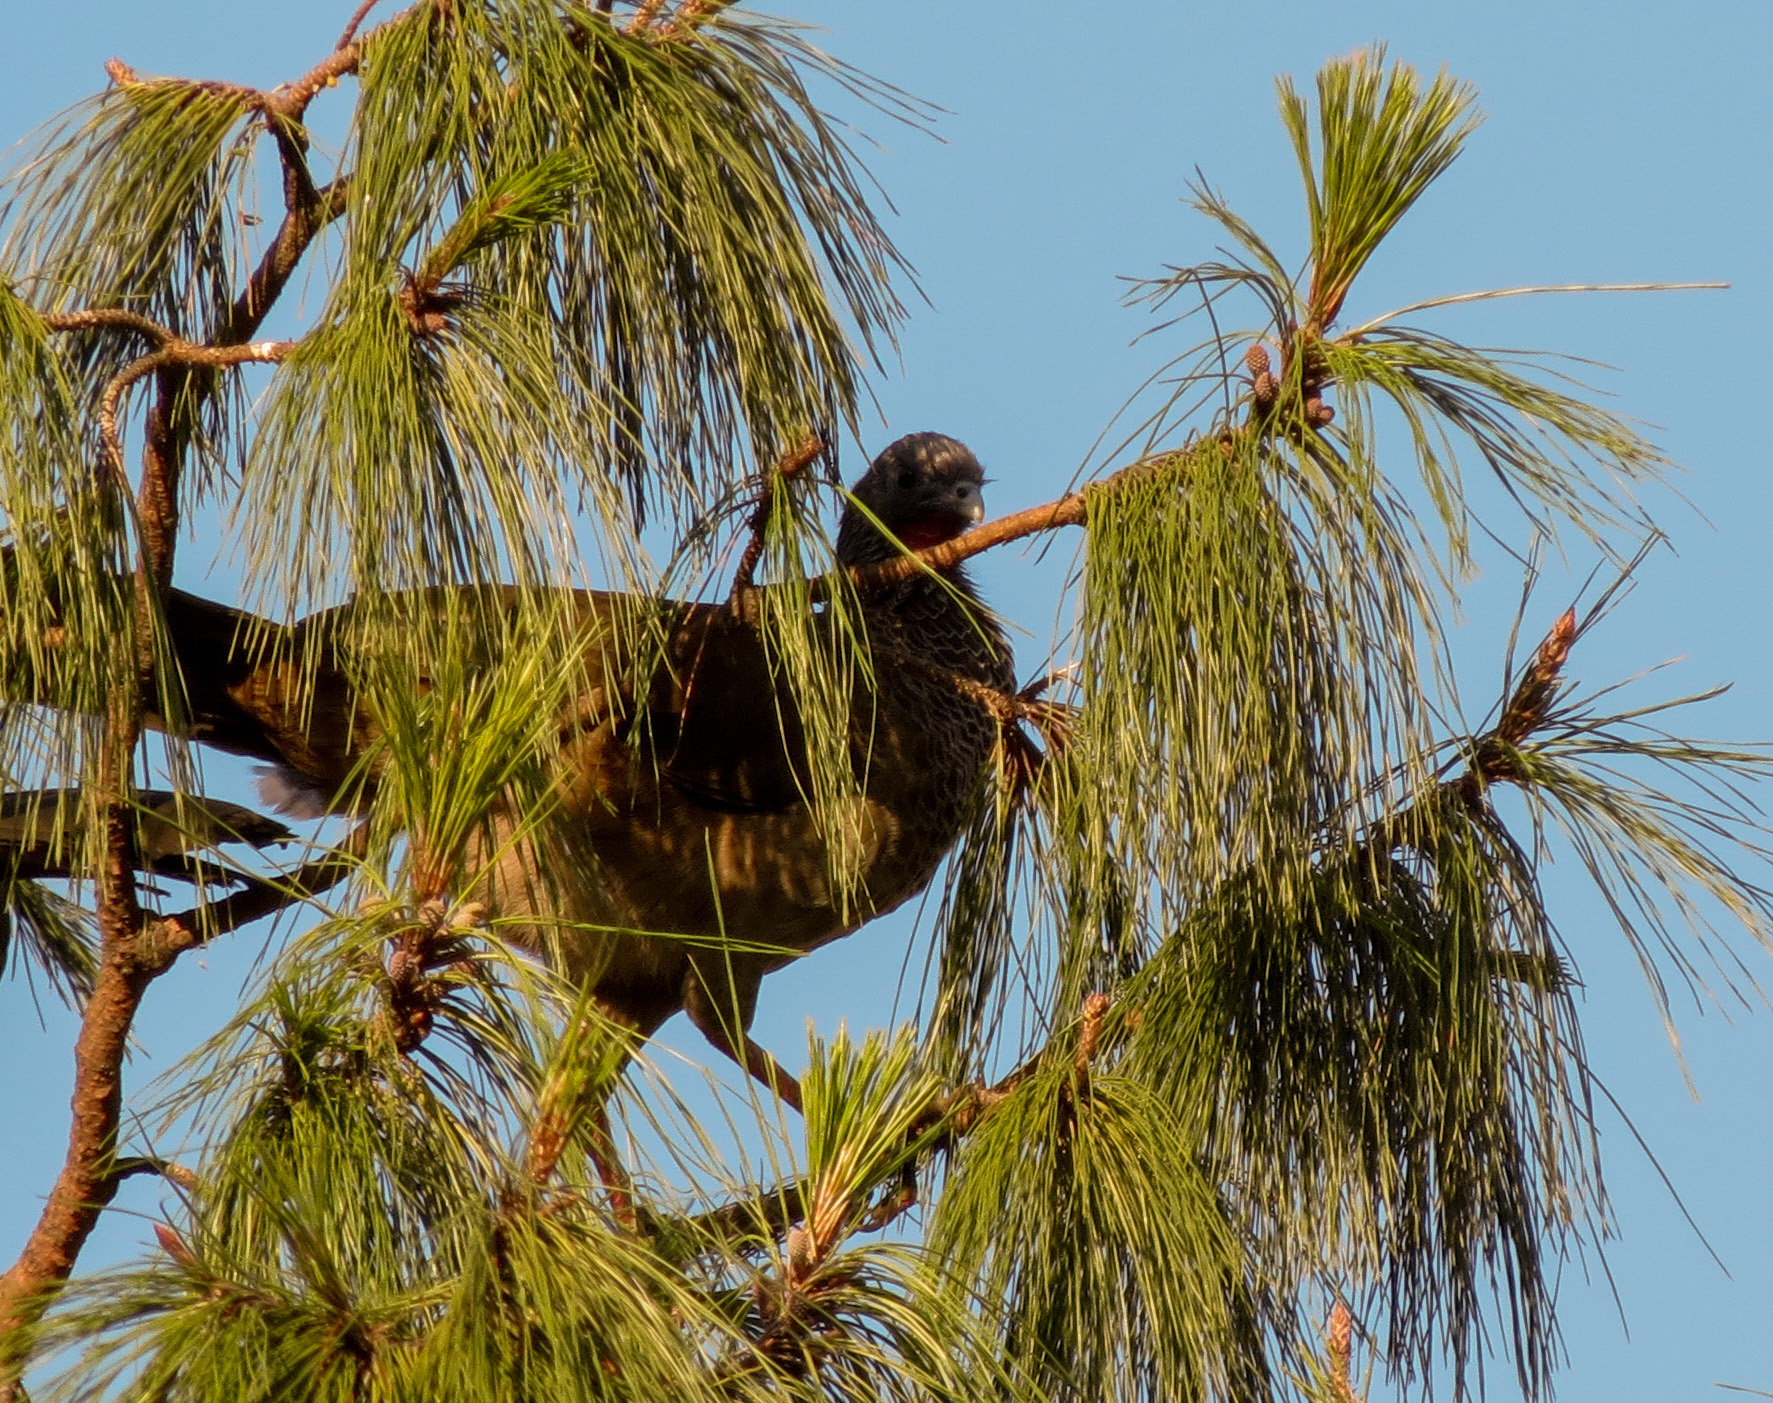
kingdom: Animalia
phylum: Chordata
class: Aves
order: Galliformes
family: Cracidae
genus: Ortalis
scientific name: Ortalis columbiana
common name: Colombian chachalaca
